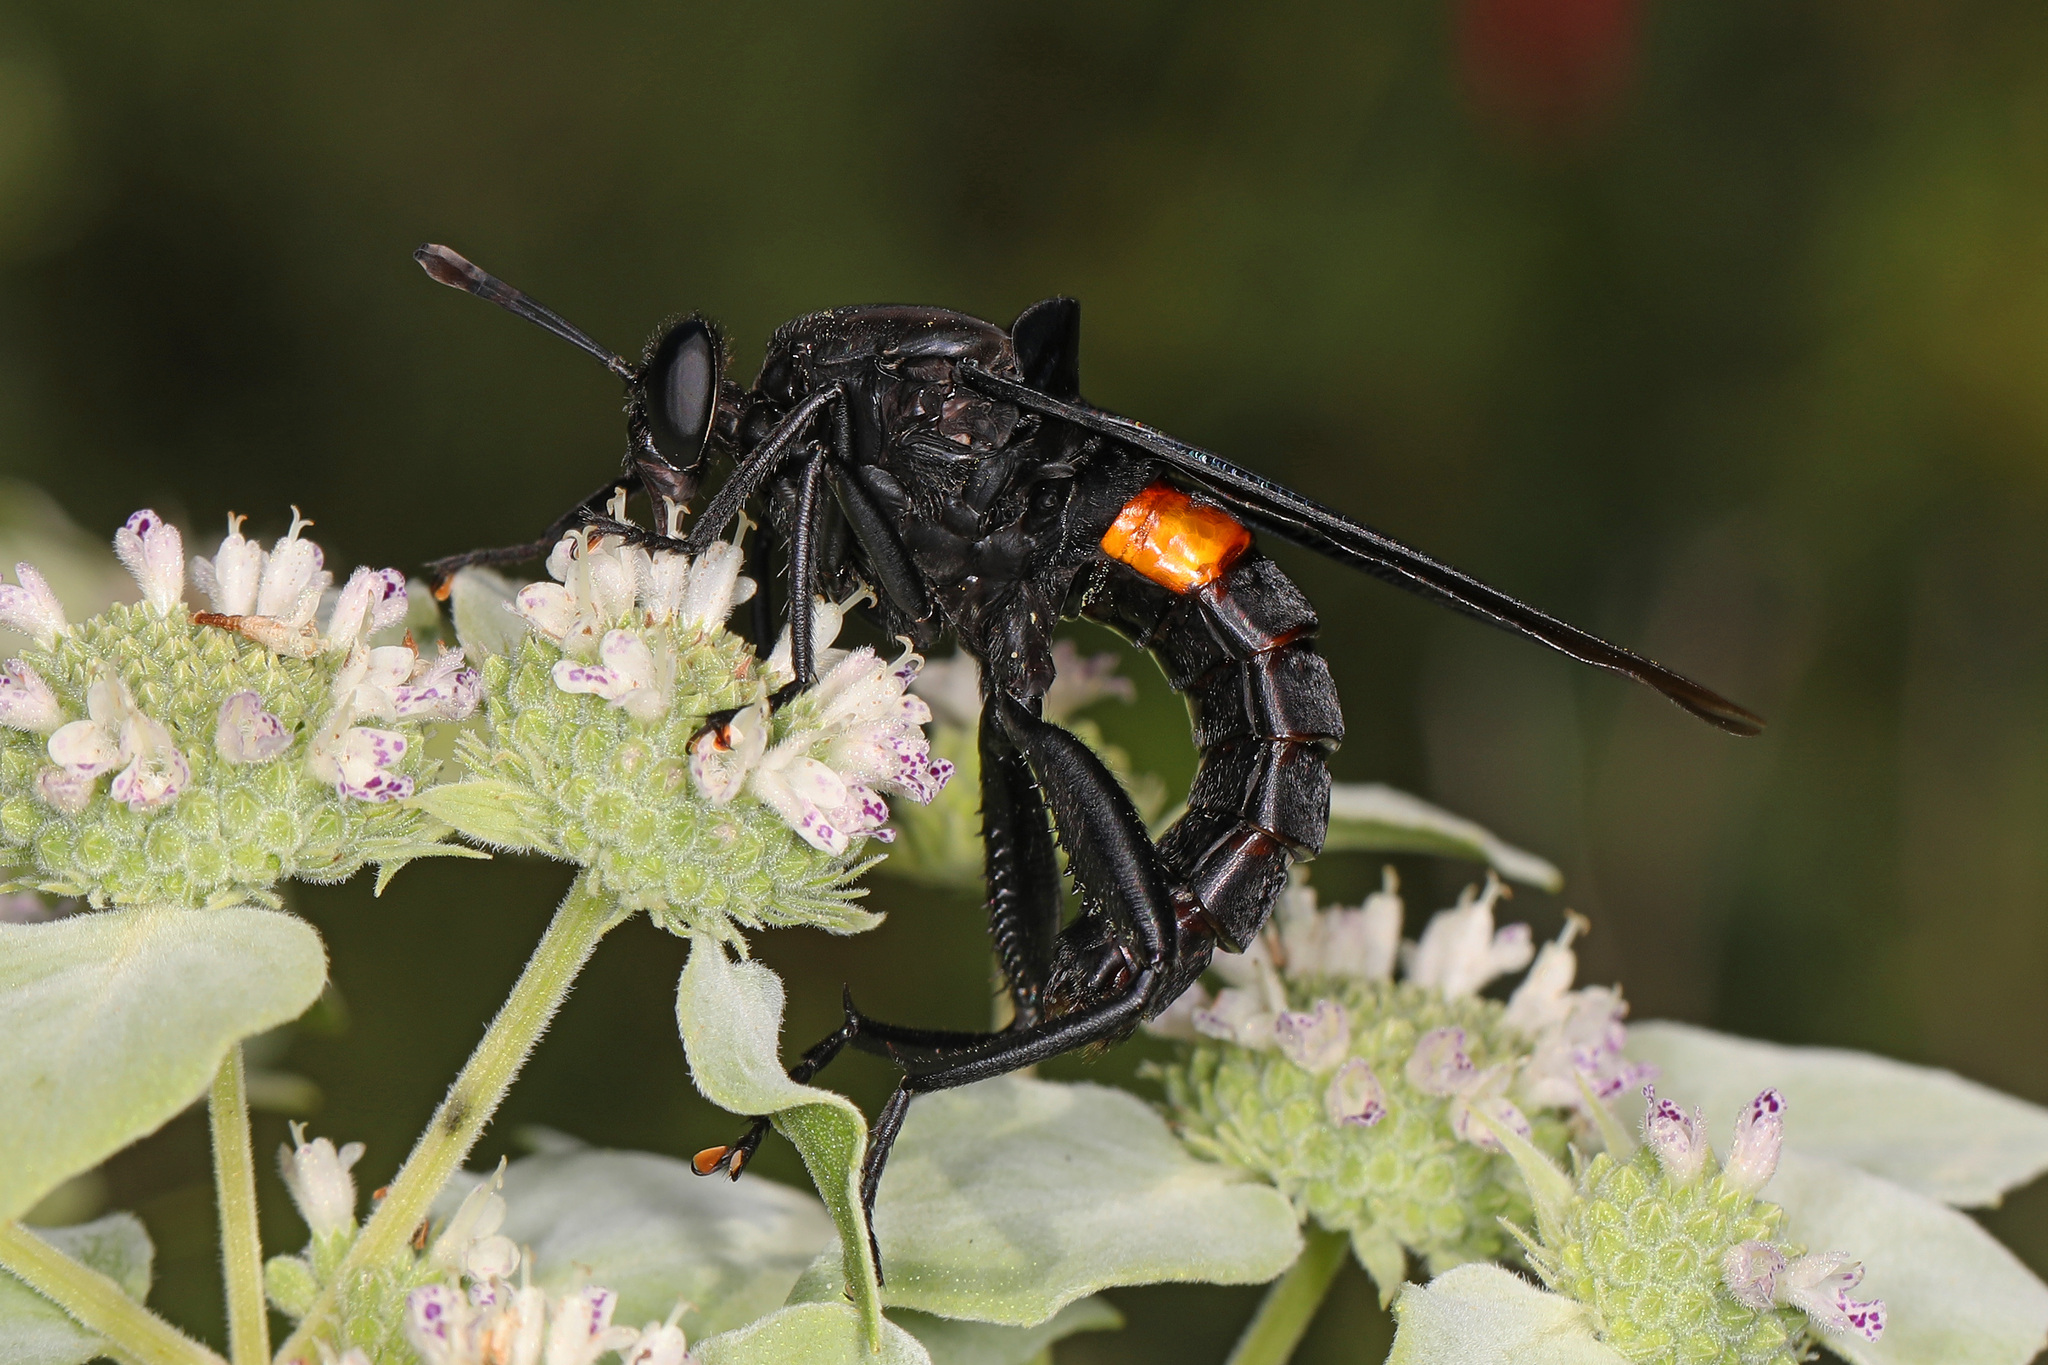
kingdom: Animalia
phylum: Arthropoda
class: Insecta
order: Diptera
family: Mydidae
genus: Mydas
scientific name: Mydas clavatus
